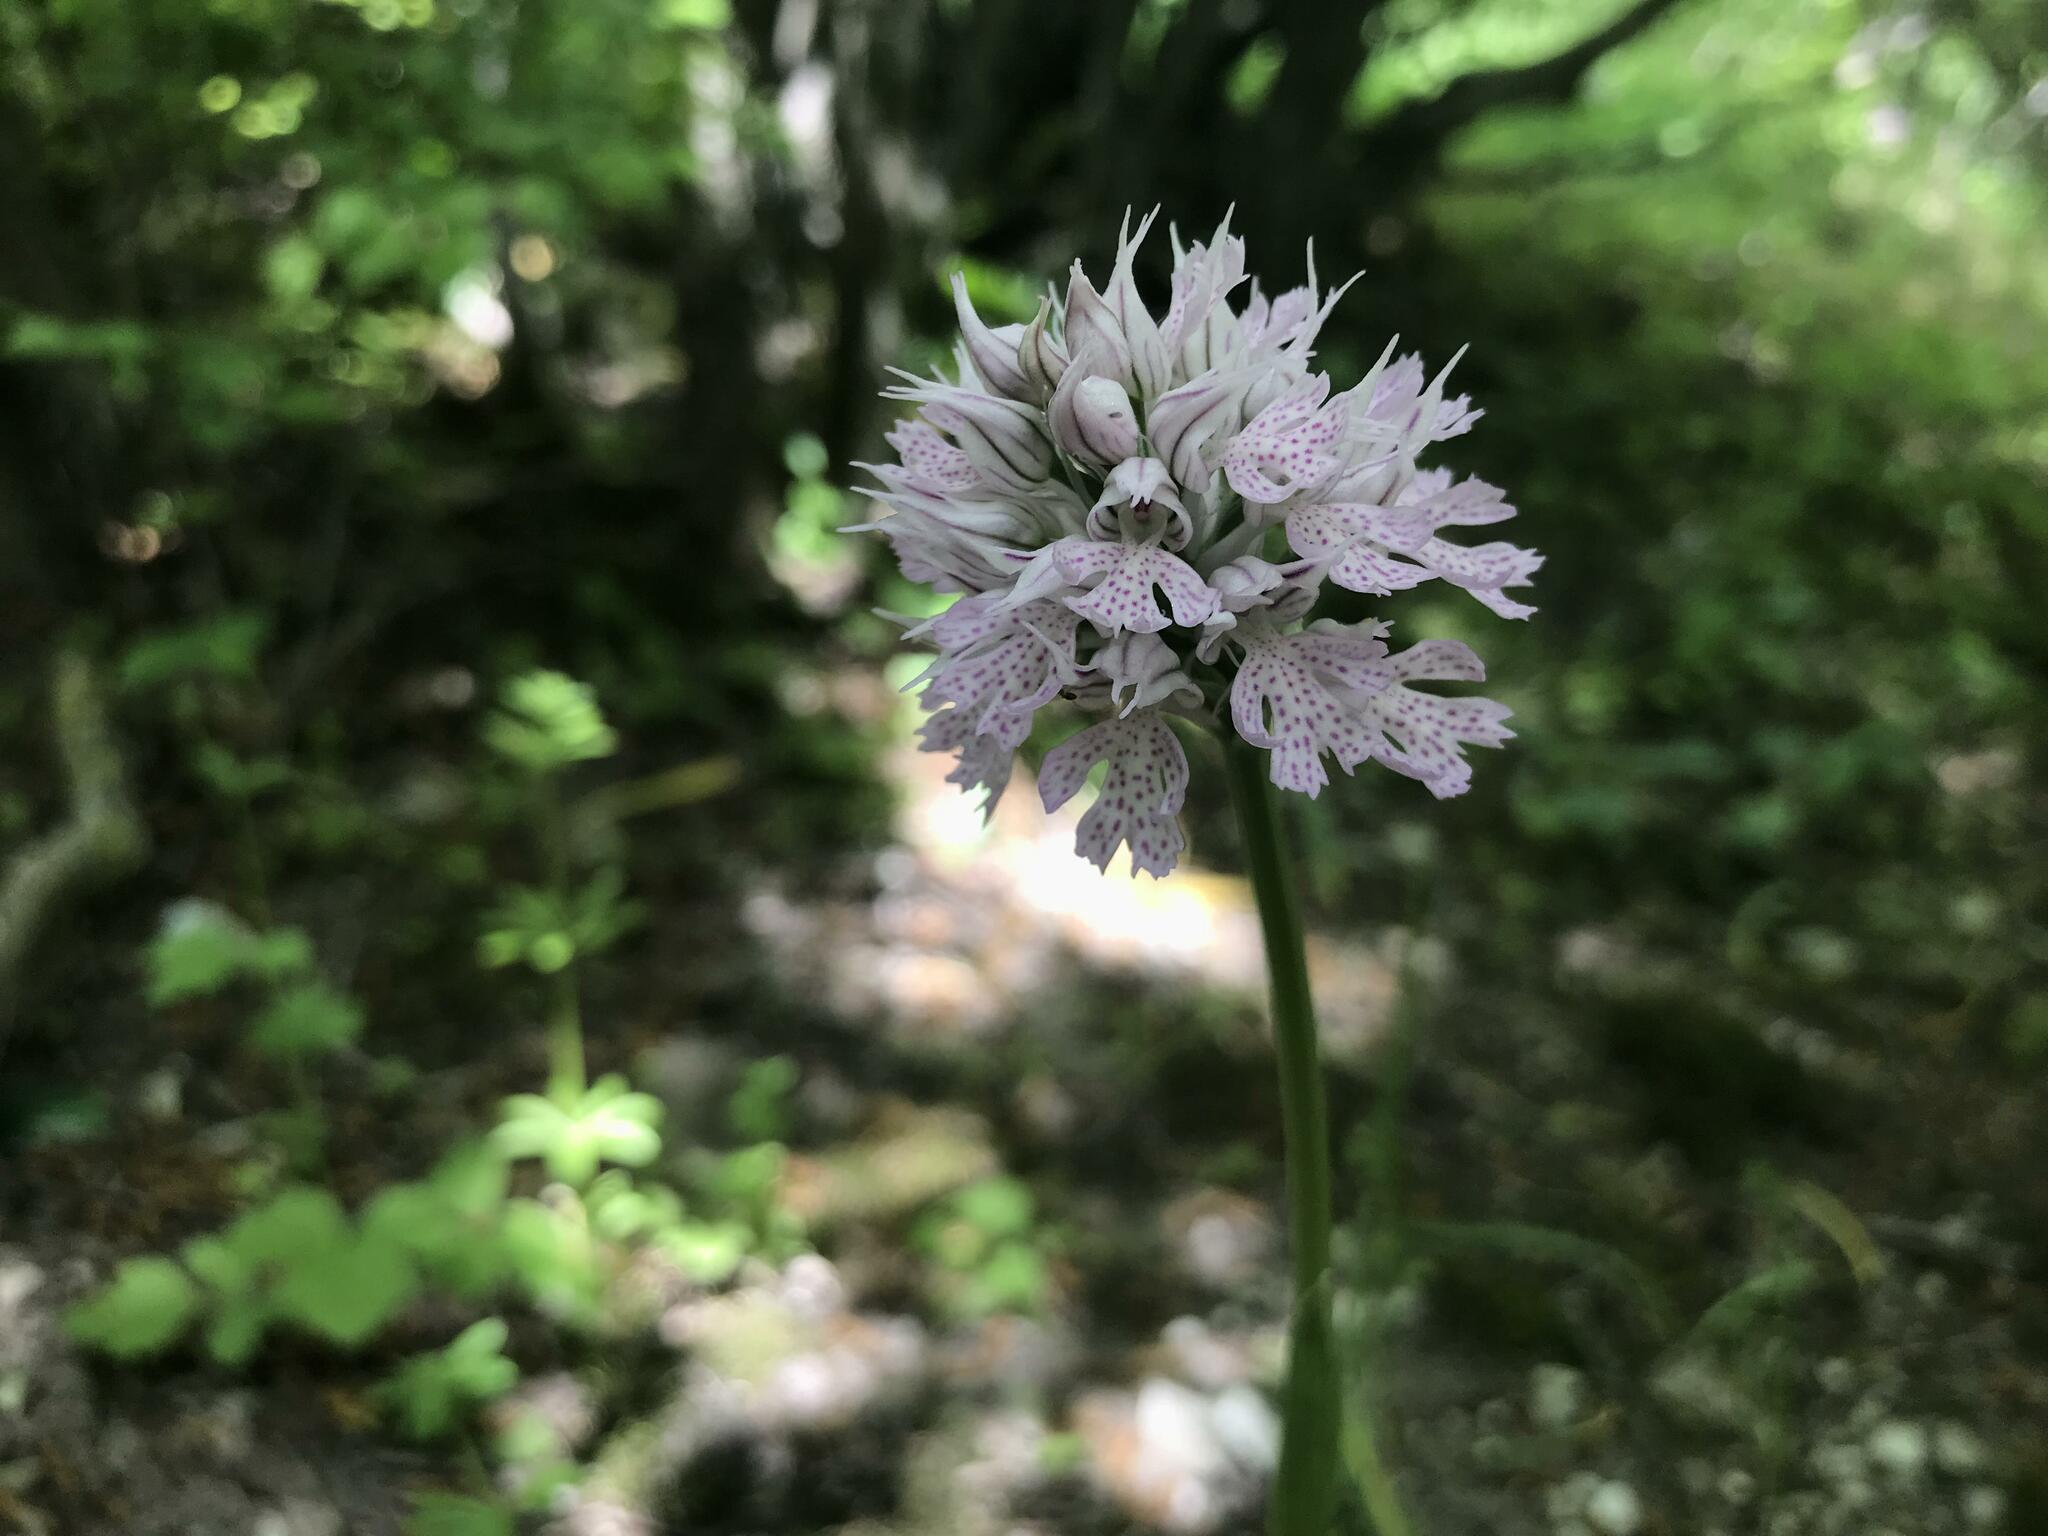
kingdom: Plantae
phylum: Tracheophyta
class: Liliopsida
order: Asparagales
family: Orchidaceae
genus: Neotinea
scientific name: Neotinea tridentata
